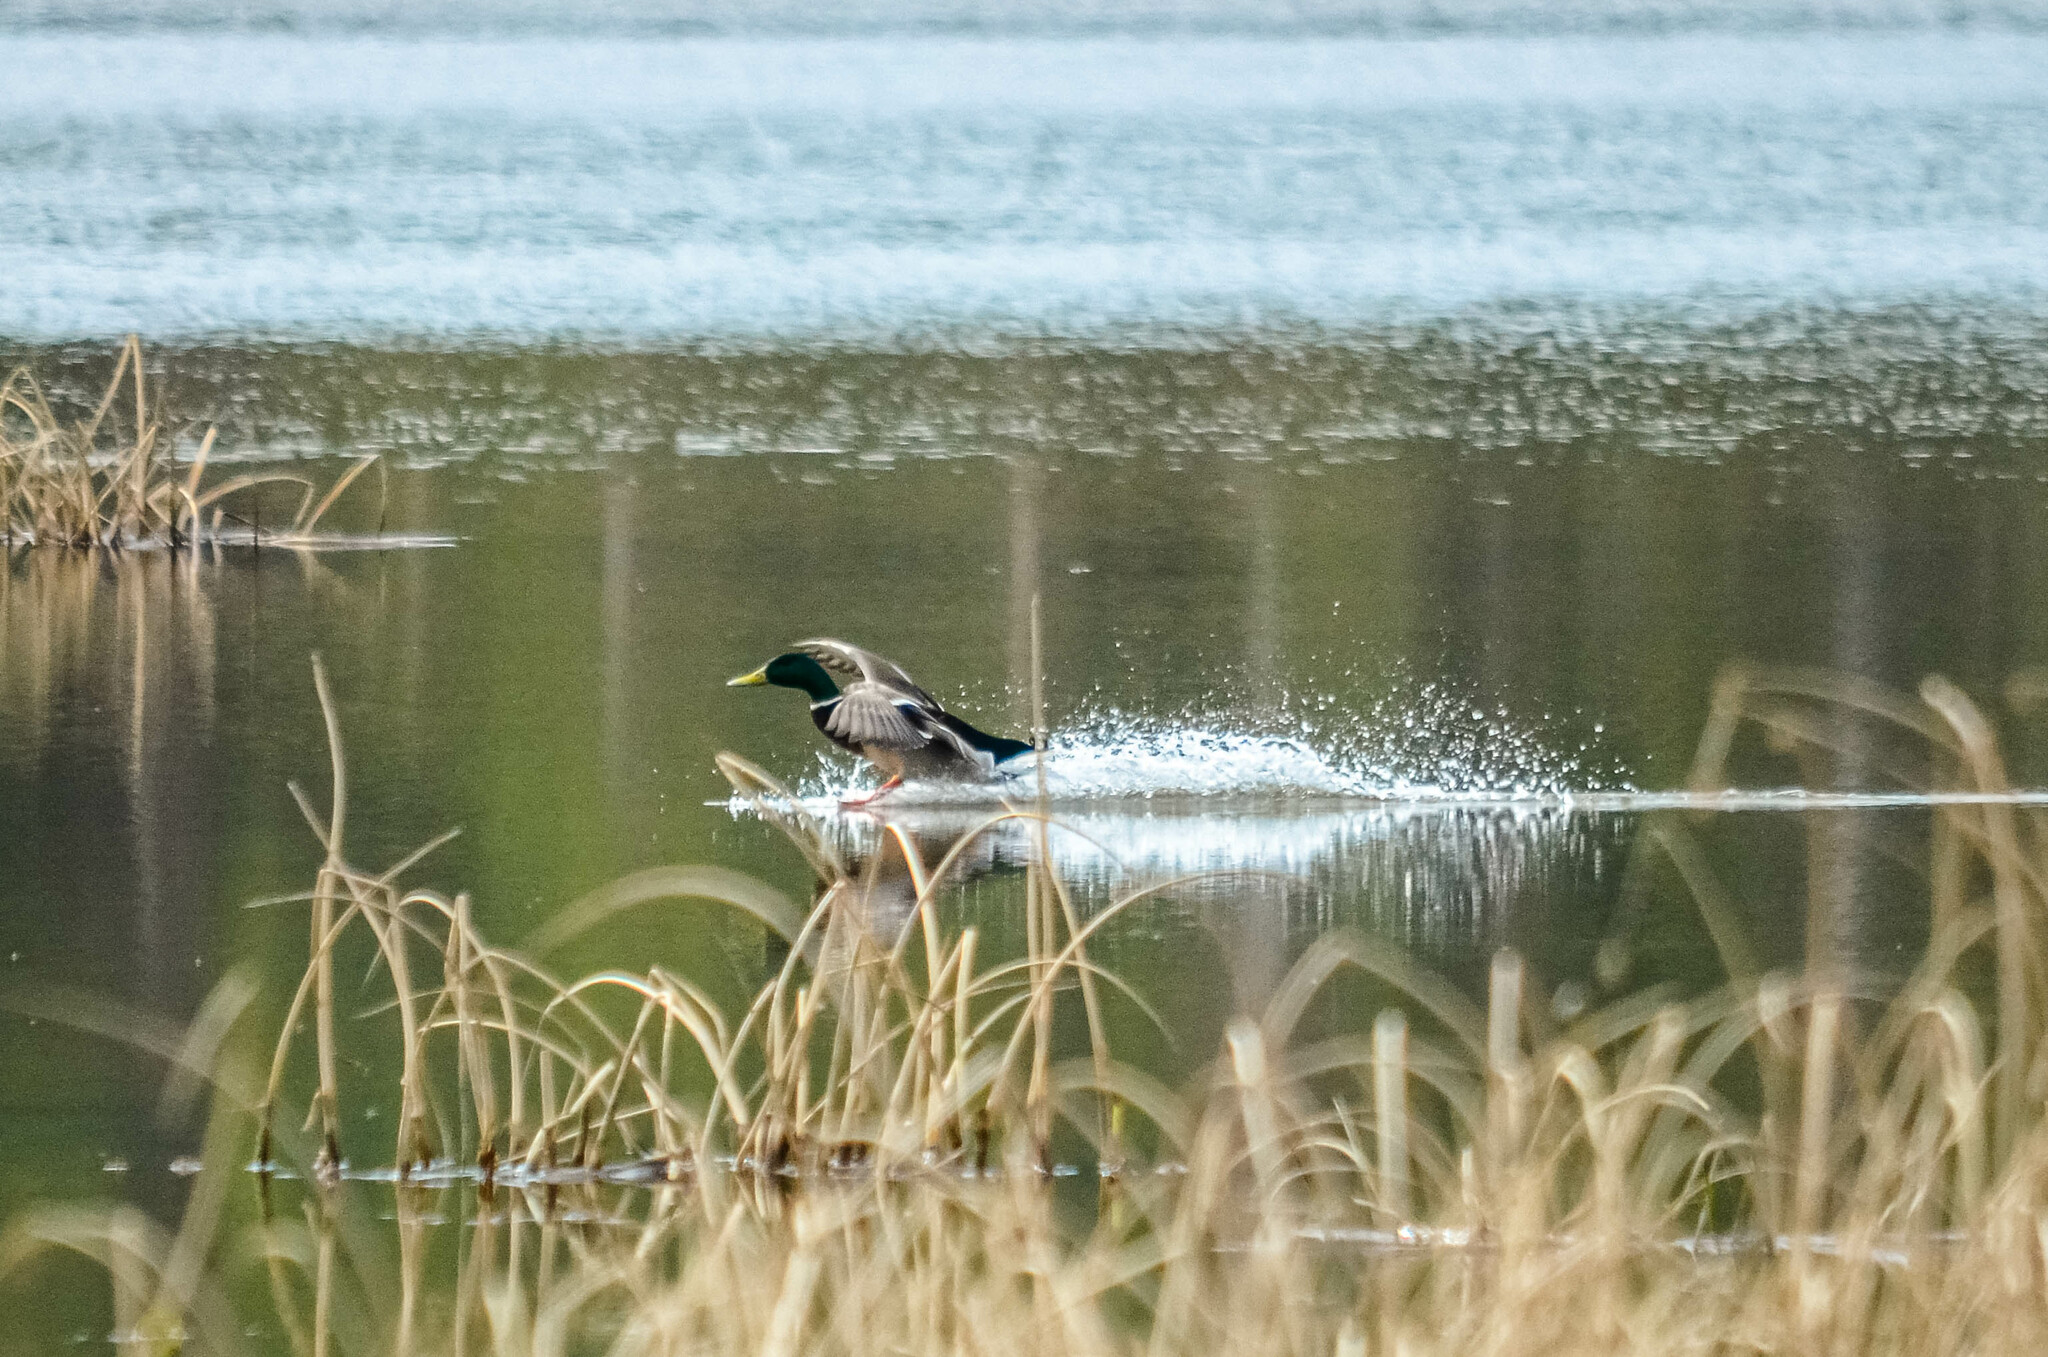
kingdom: Animalia
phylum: Chordata
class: Aves
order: Anseriformes
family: Anatidae
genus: Anas
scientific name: Anas platyrhynchos
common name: Mallard
